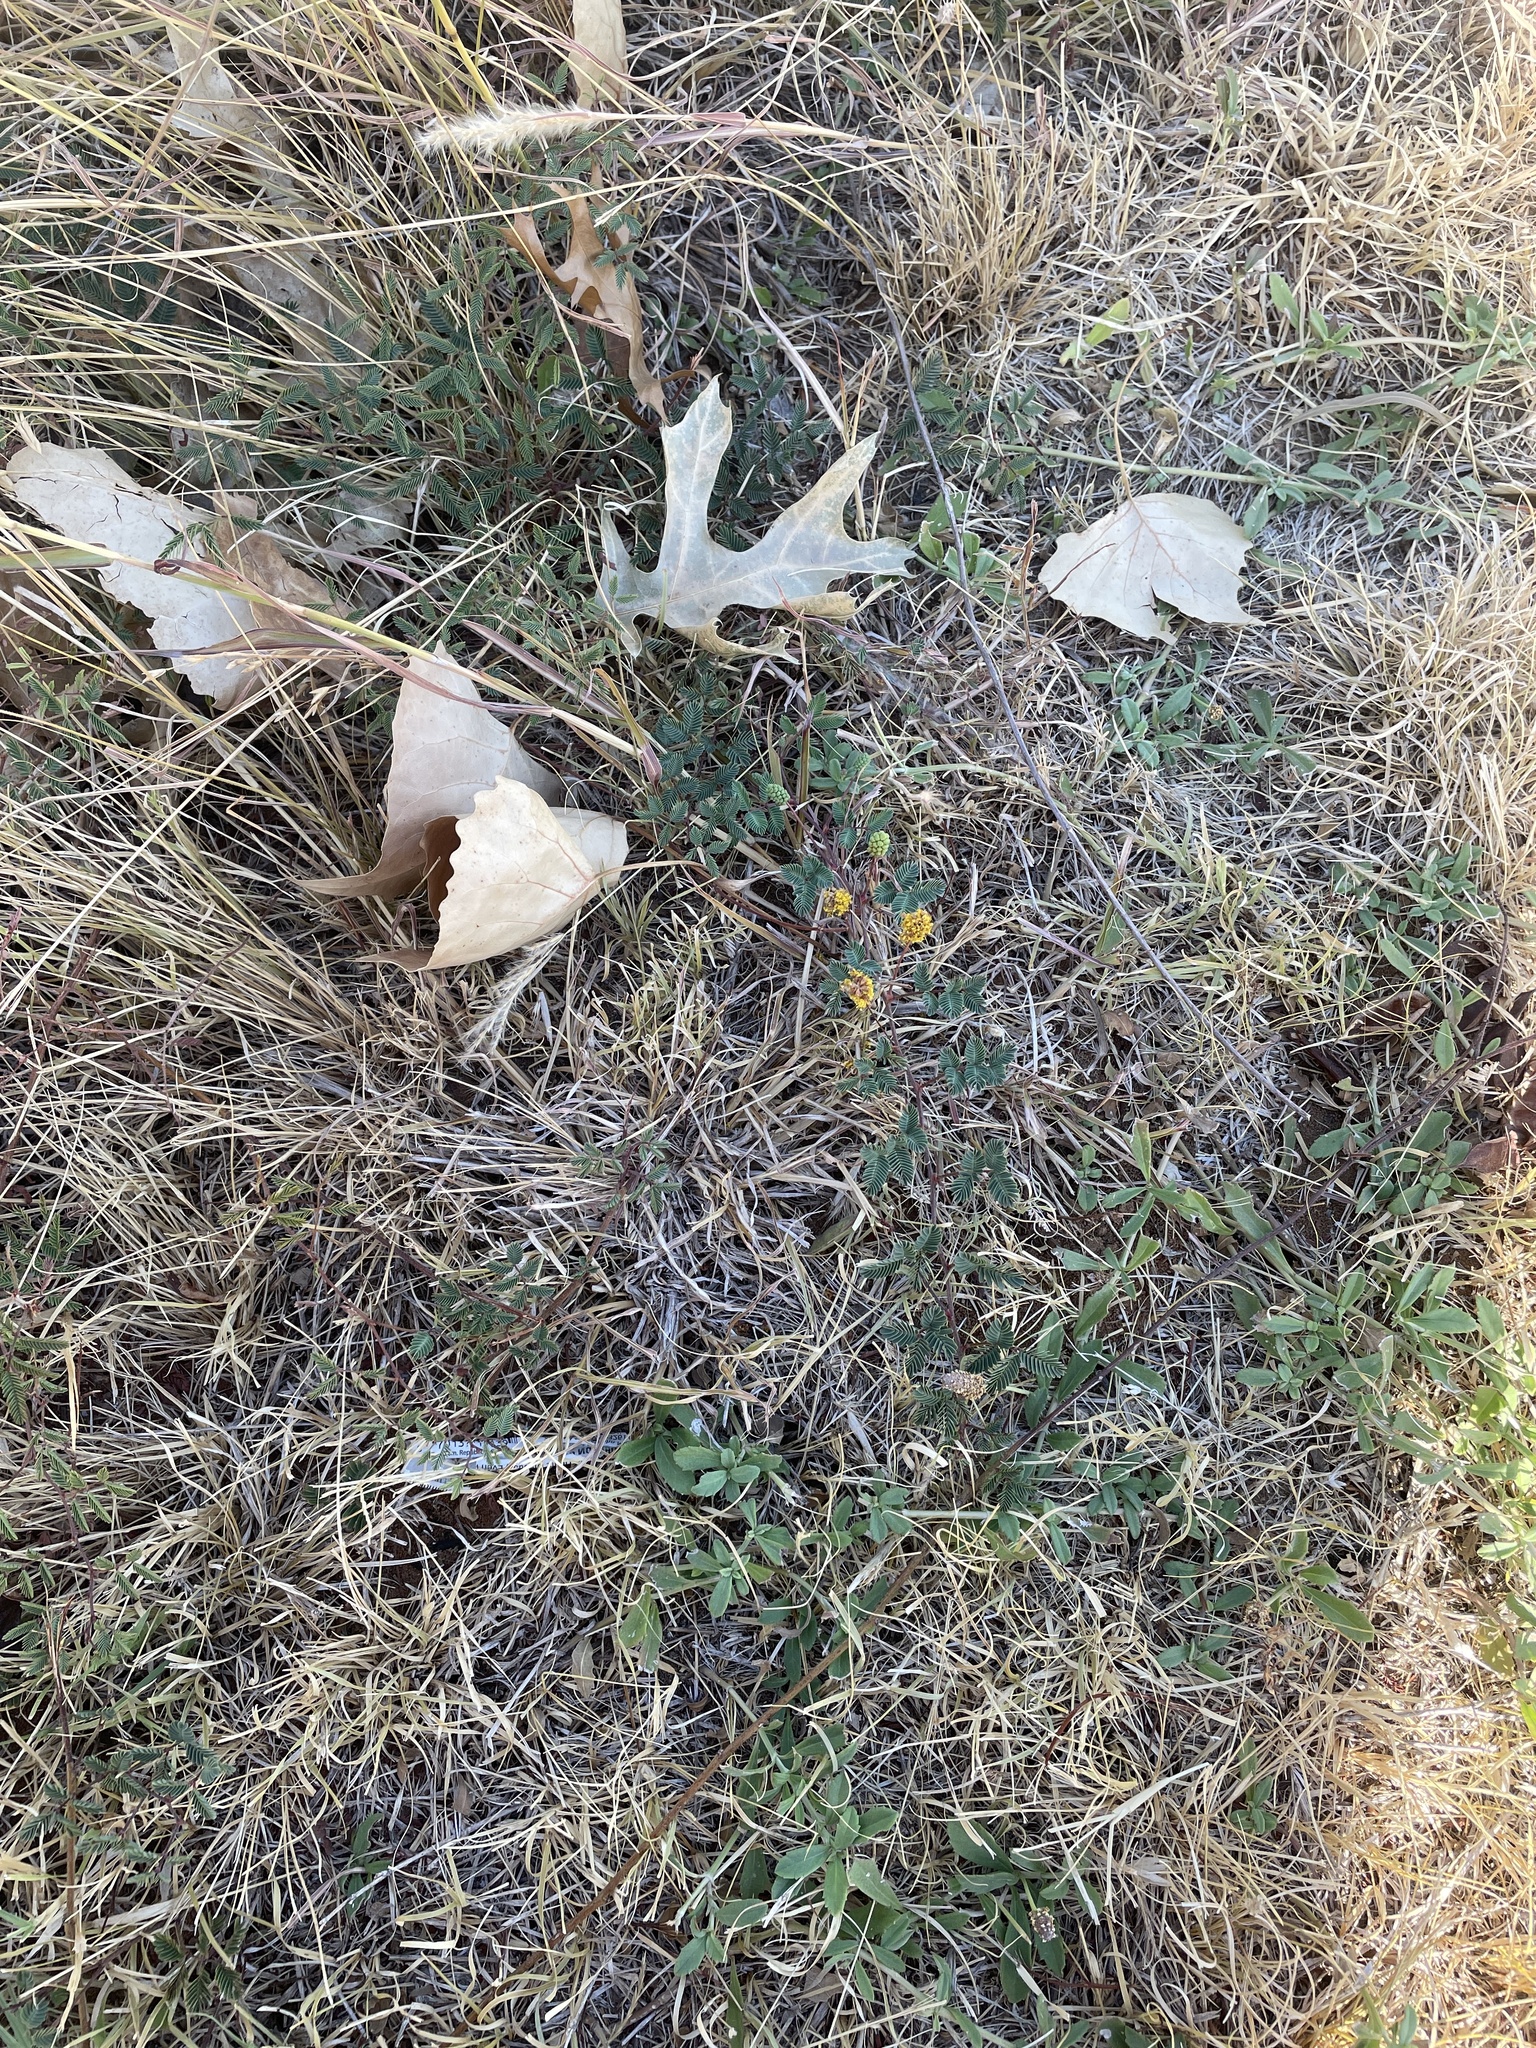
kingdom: Plantae
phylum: Tracheophyta
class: Magnoliopsida
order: Fabales
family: Fabaceae
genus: Neptunia
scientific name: Neptunia lutea
